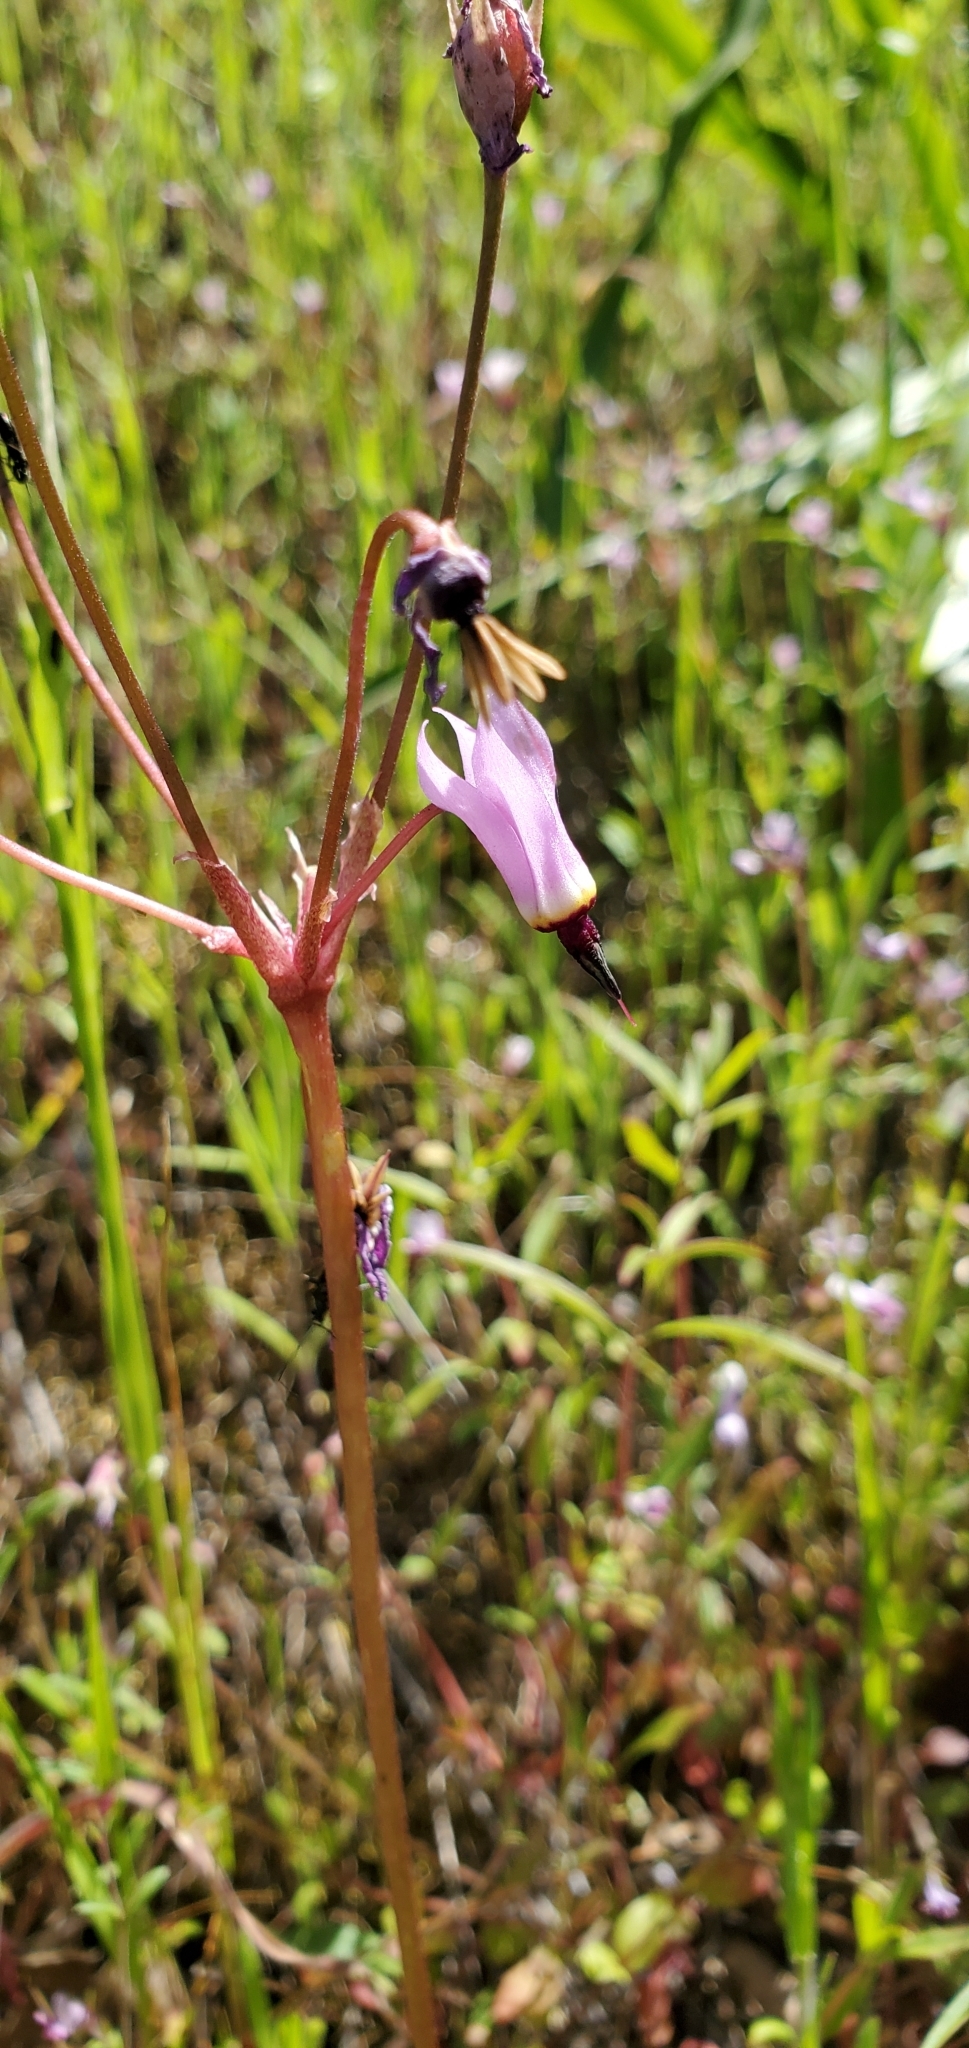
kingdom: Plantae
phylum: Tracheophyta
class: Magnoliopsida
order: Ericales
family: Primulaceae
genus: Dodecatheon
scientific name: Dodecatheon hendersonii
